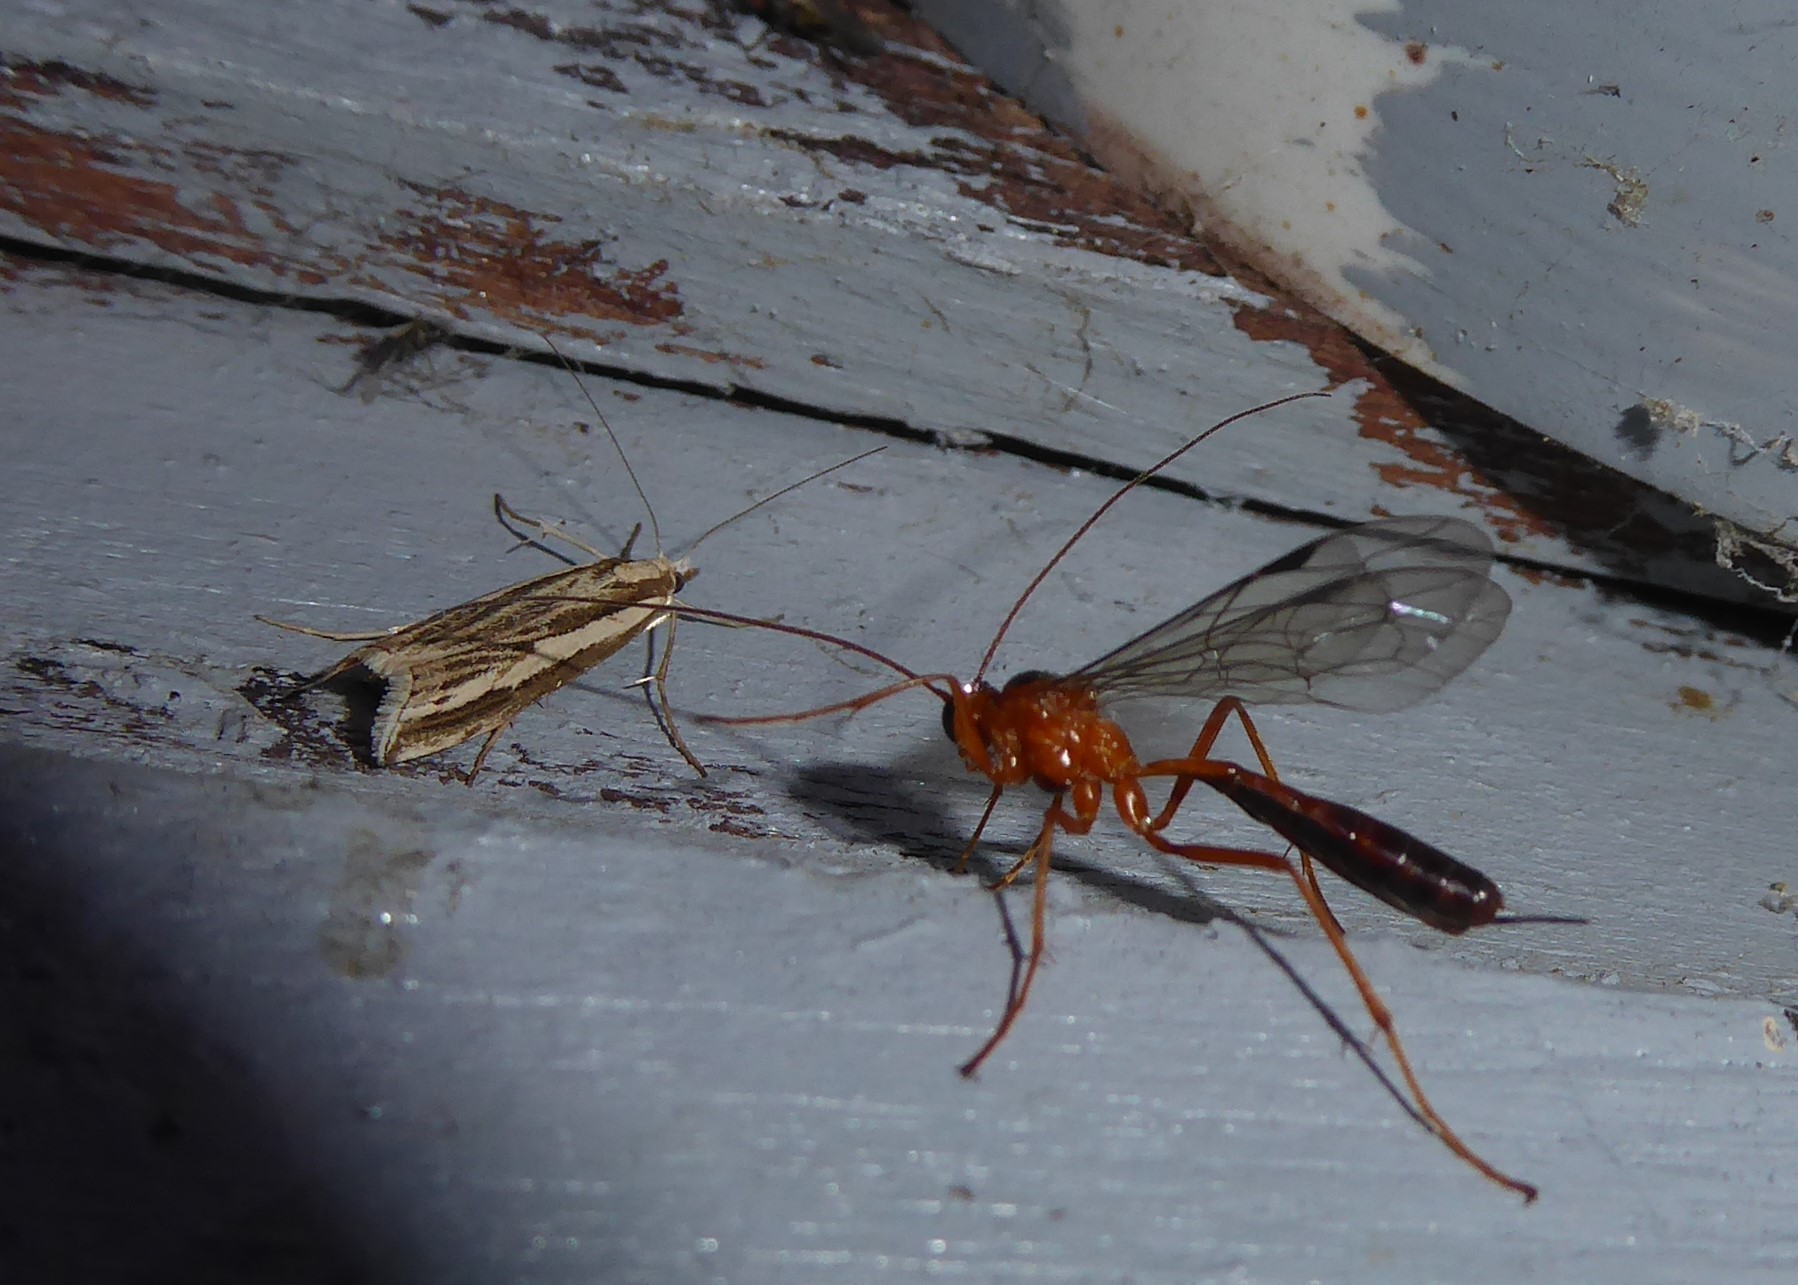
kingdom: Animalia
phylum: Arthropoda
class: Insecta
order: Lepidoptera
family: Crambidae
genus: Orocrambus
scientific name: Orocrambus vittellus
